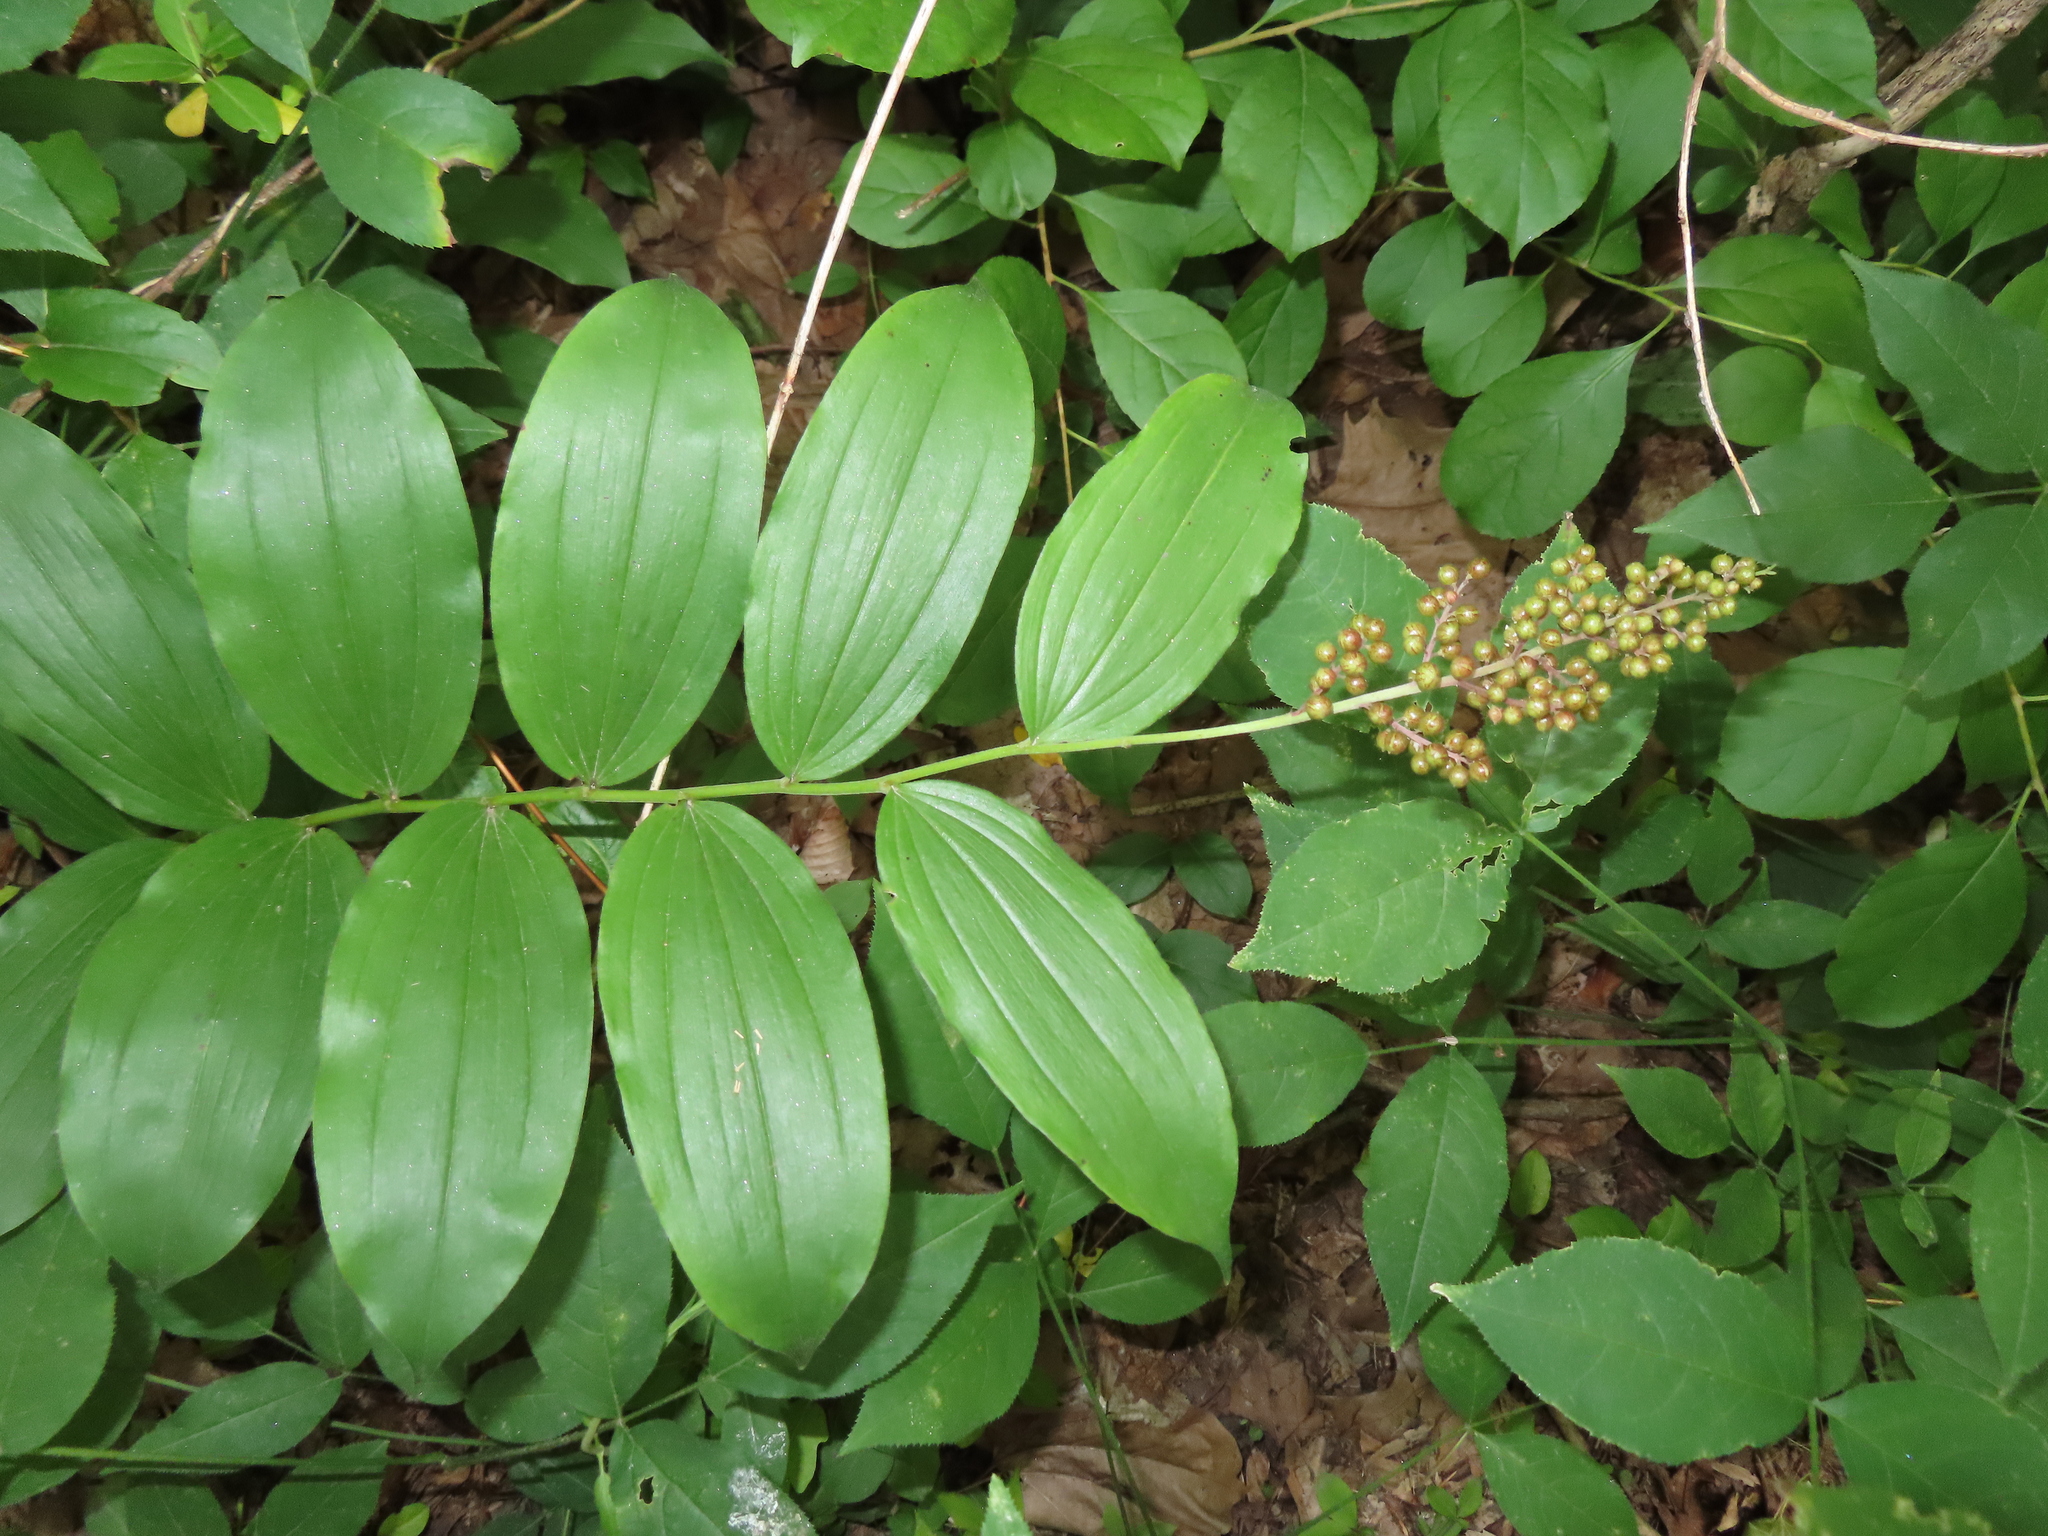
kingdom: Plantae
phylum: Tracheophyta
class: Liliopsida
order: Asparagales
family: Asparagaceae
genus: Maianthemum
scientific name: Maianthemum racemosum
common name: False spikenard
